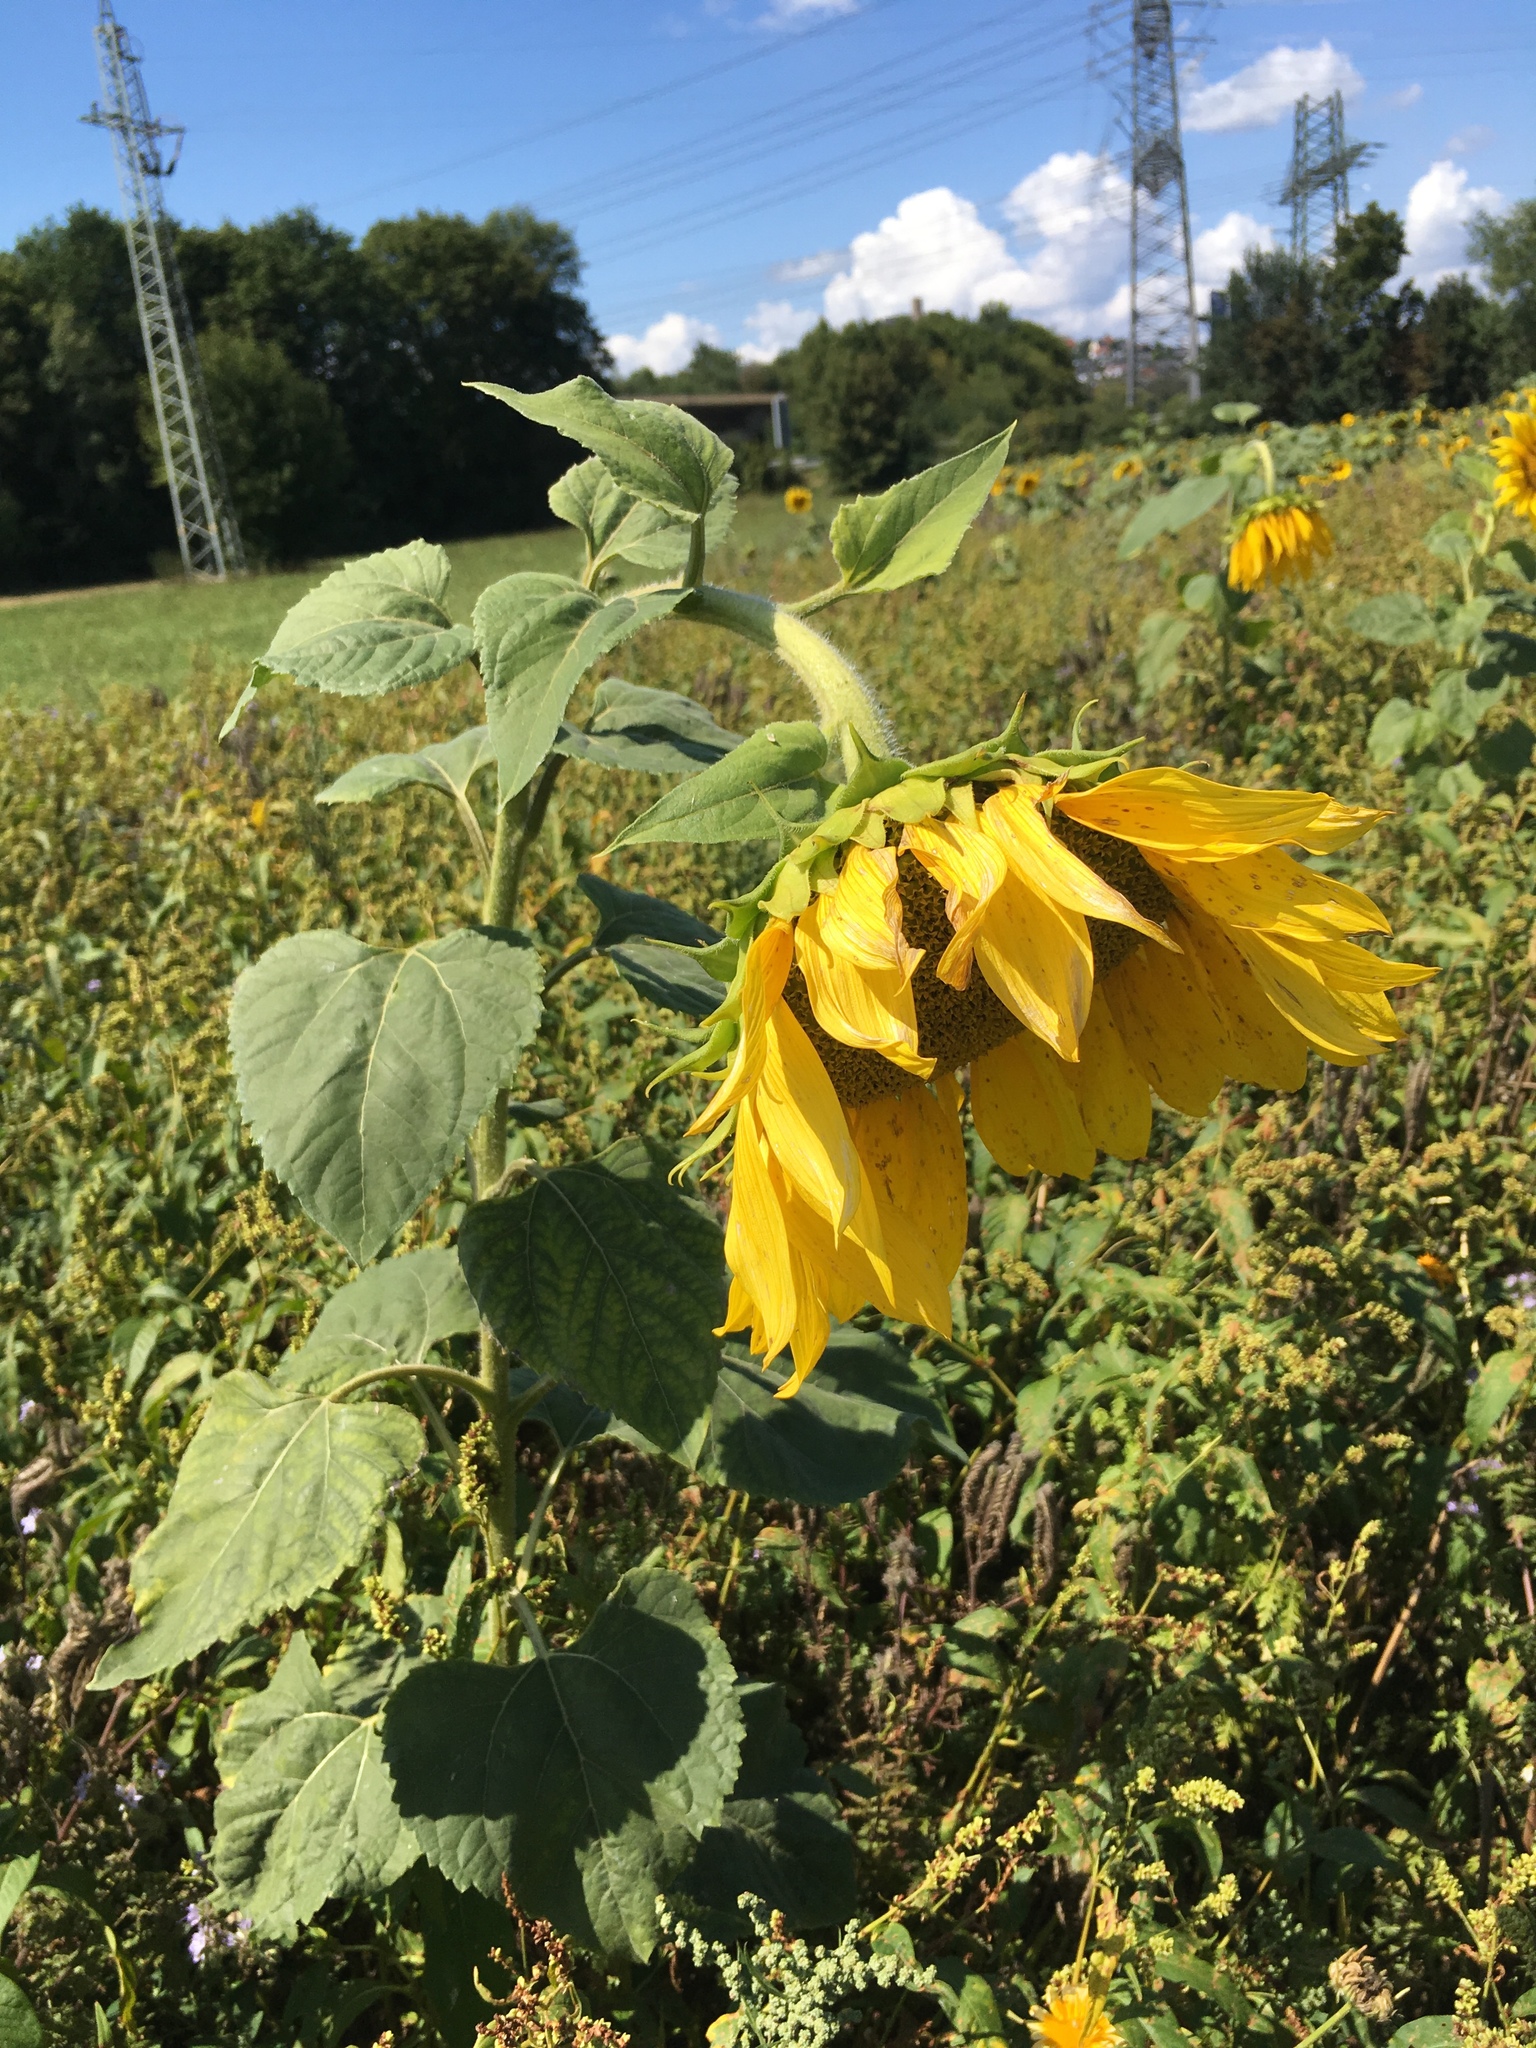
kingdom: Plantae
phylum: Tracheophyta
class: Magnoliopsida
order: Asterales
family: Asteraceae
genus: Helianthus
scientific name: Helianthus annuus
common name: Sunflower
